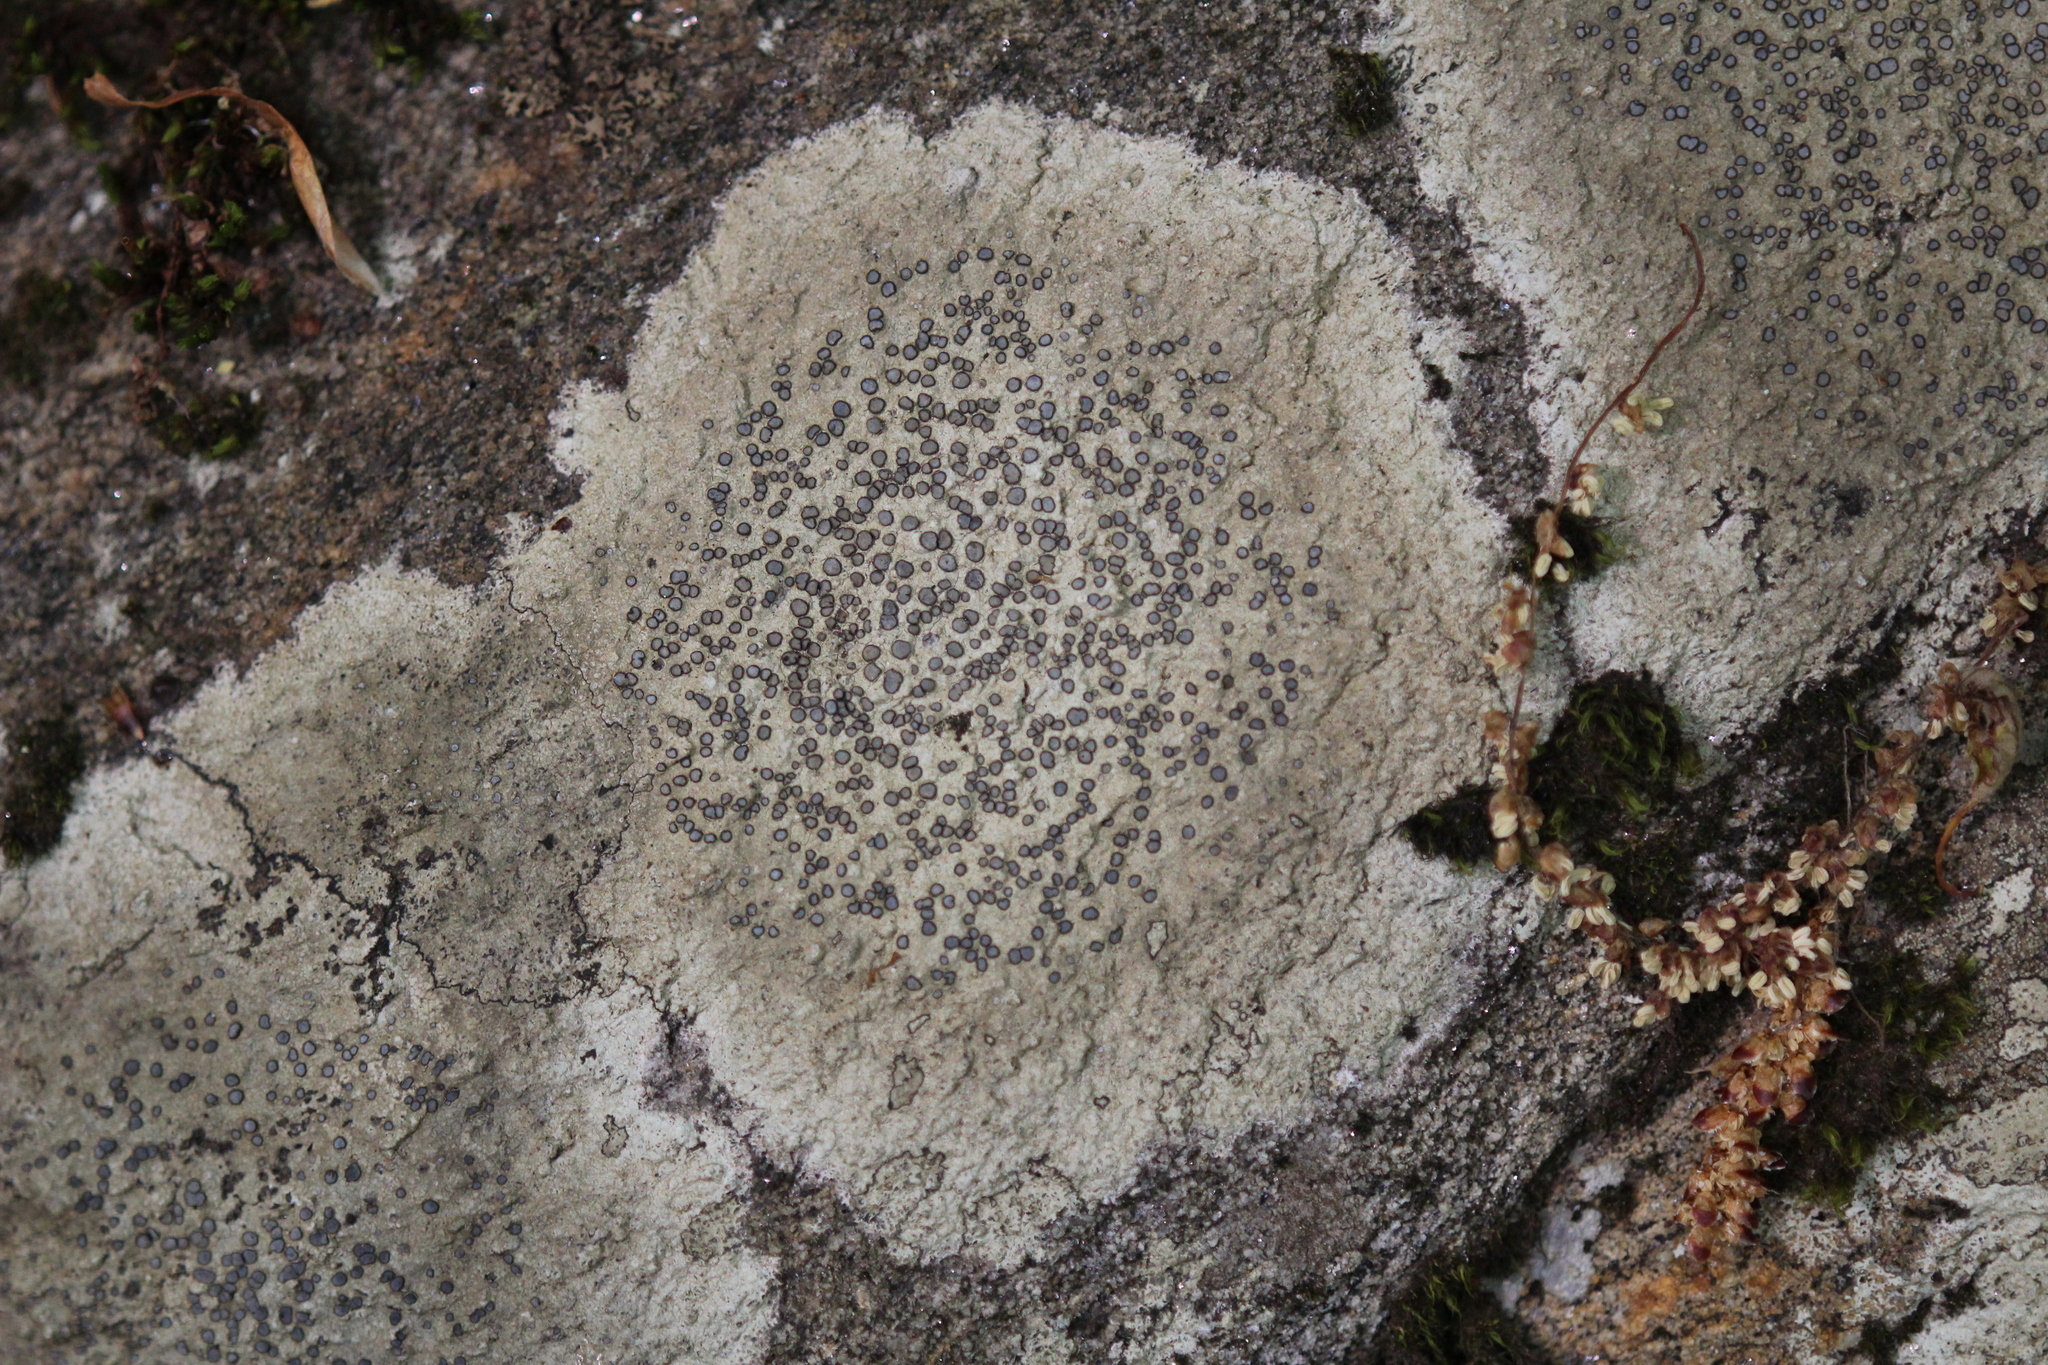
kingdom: Fungi
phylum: Ascomycota
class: Lecanoromycetes
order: Lecideales
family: Lecideaceae
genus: Porpidia
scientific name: Porpidia albocaerulescens
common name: Smokey-eyed boulder lichen
